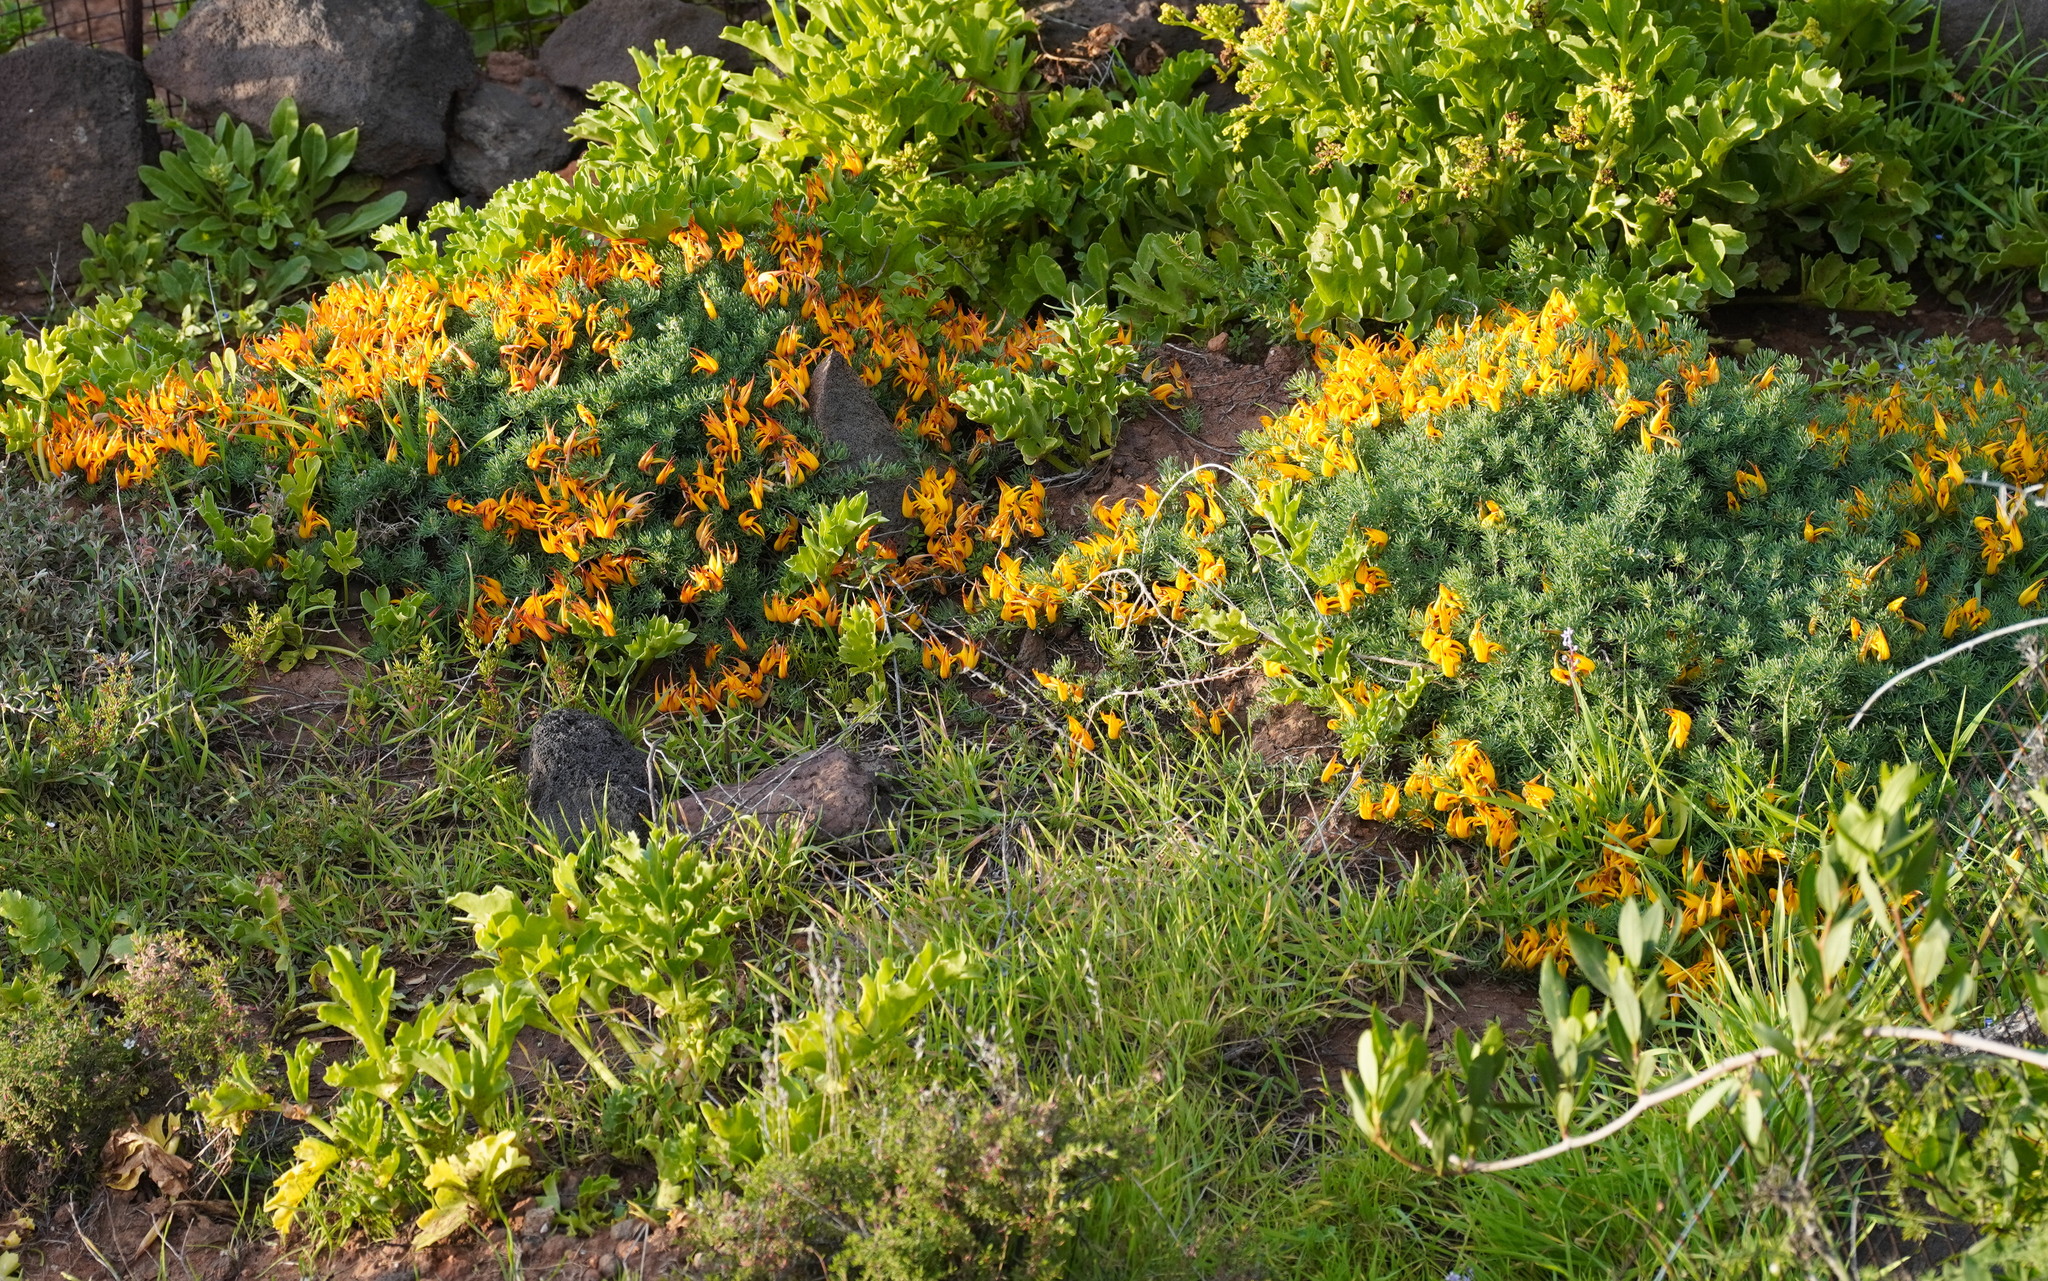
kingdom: Plantae
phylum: Tracheophyta
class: Magnoliopsida
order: Fabales
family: Fabaceae
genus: Lotus
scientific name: Lotus maculatus
